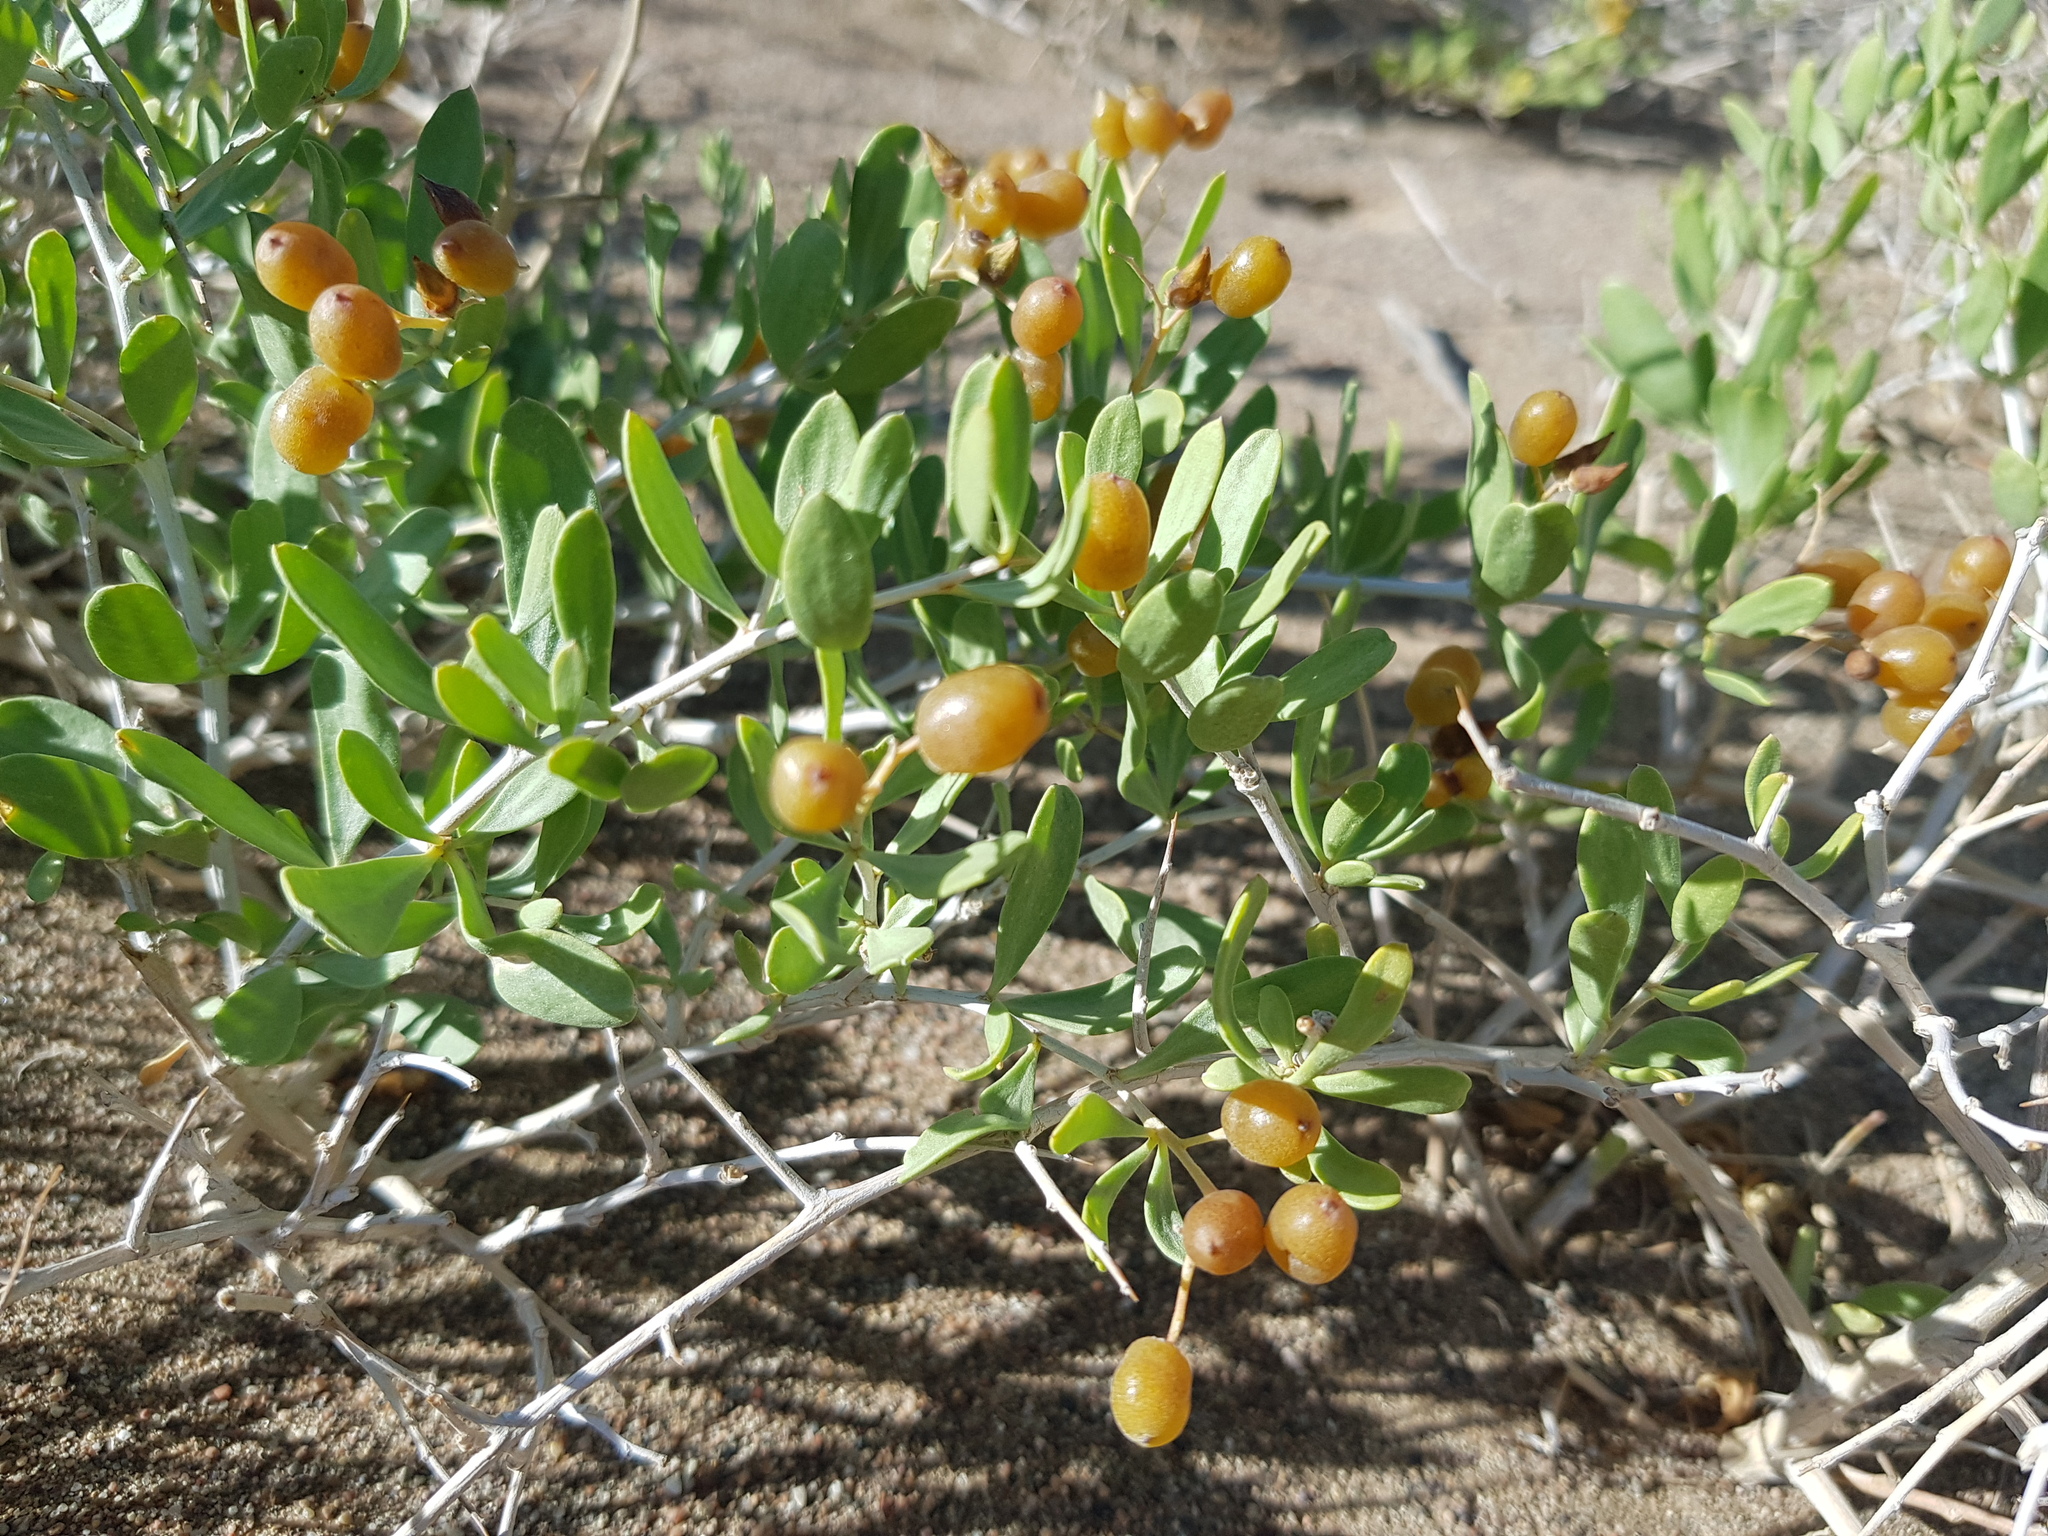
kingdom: Plantae
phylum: Tracheophyta
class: Magnoliopsida
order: Sapindales
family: Nitrariaceae
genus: Nitraria
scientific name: Nitraria sibirica
